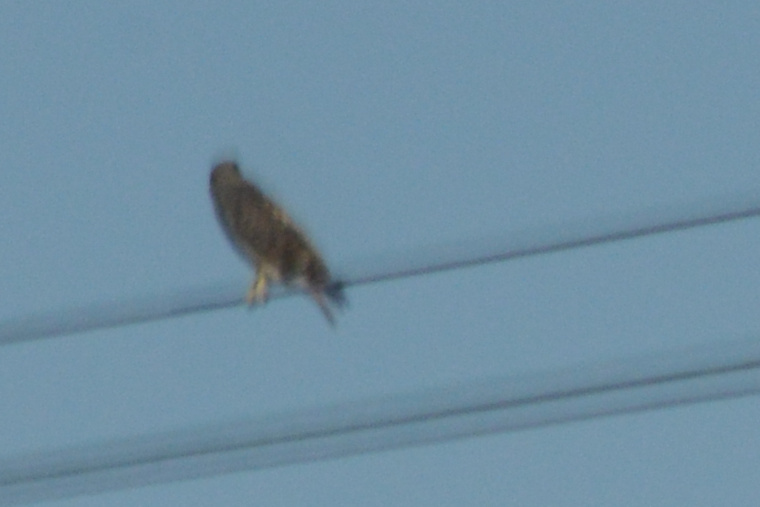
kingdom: Animalia
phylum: Chordata
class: Aves
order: Accipitriformes
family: Accipitridae
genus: Buteo
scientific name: Buteo lineatus
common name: Red-shouldered hawk
